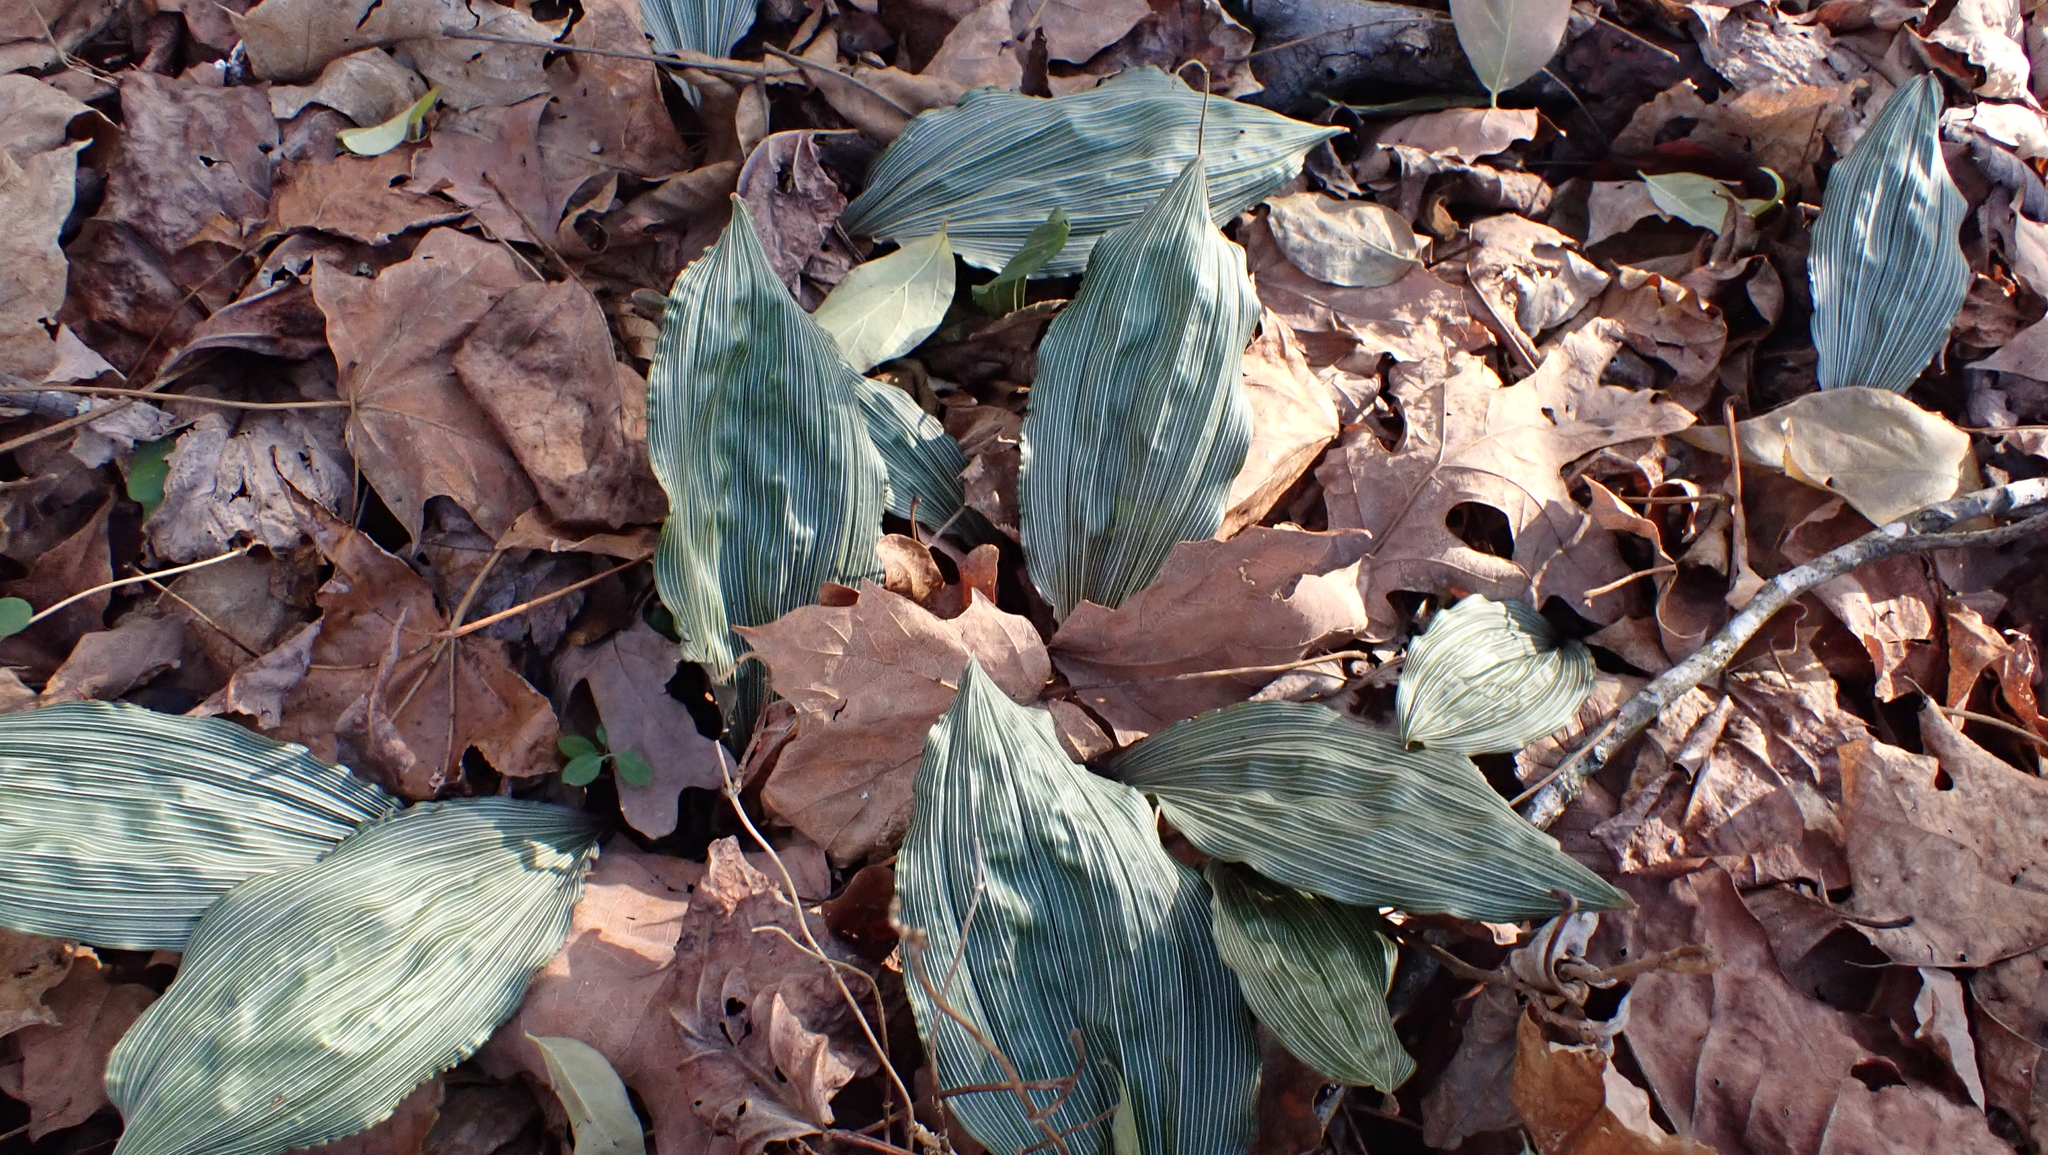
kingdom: Plantae
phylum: Tracheophyta
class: Liliopsida
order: Asparagales
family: Orchidaceae
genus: Aplectrum
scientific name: Aplectrum hyemale
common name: Adam-and-eve
